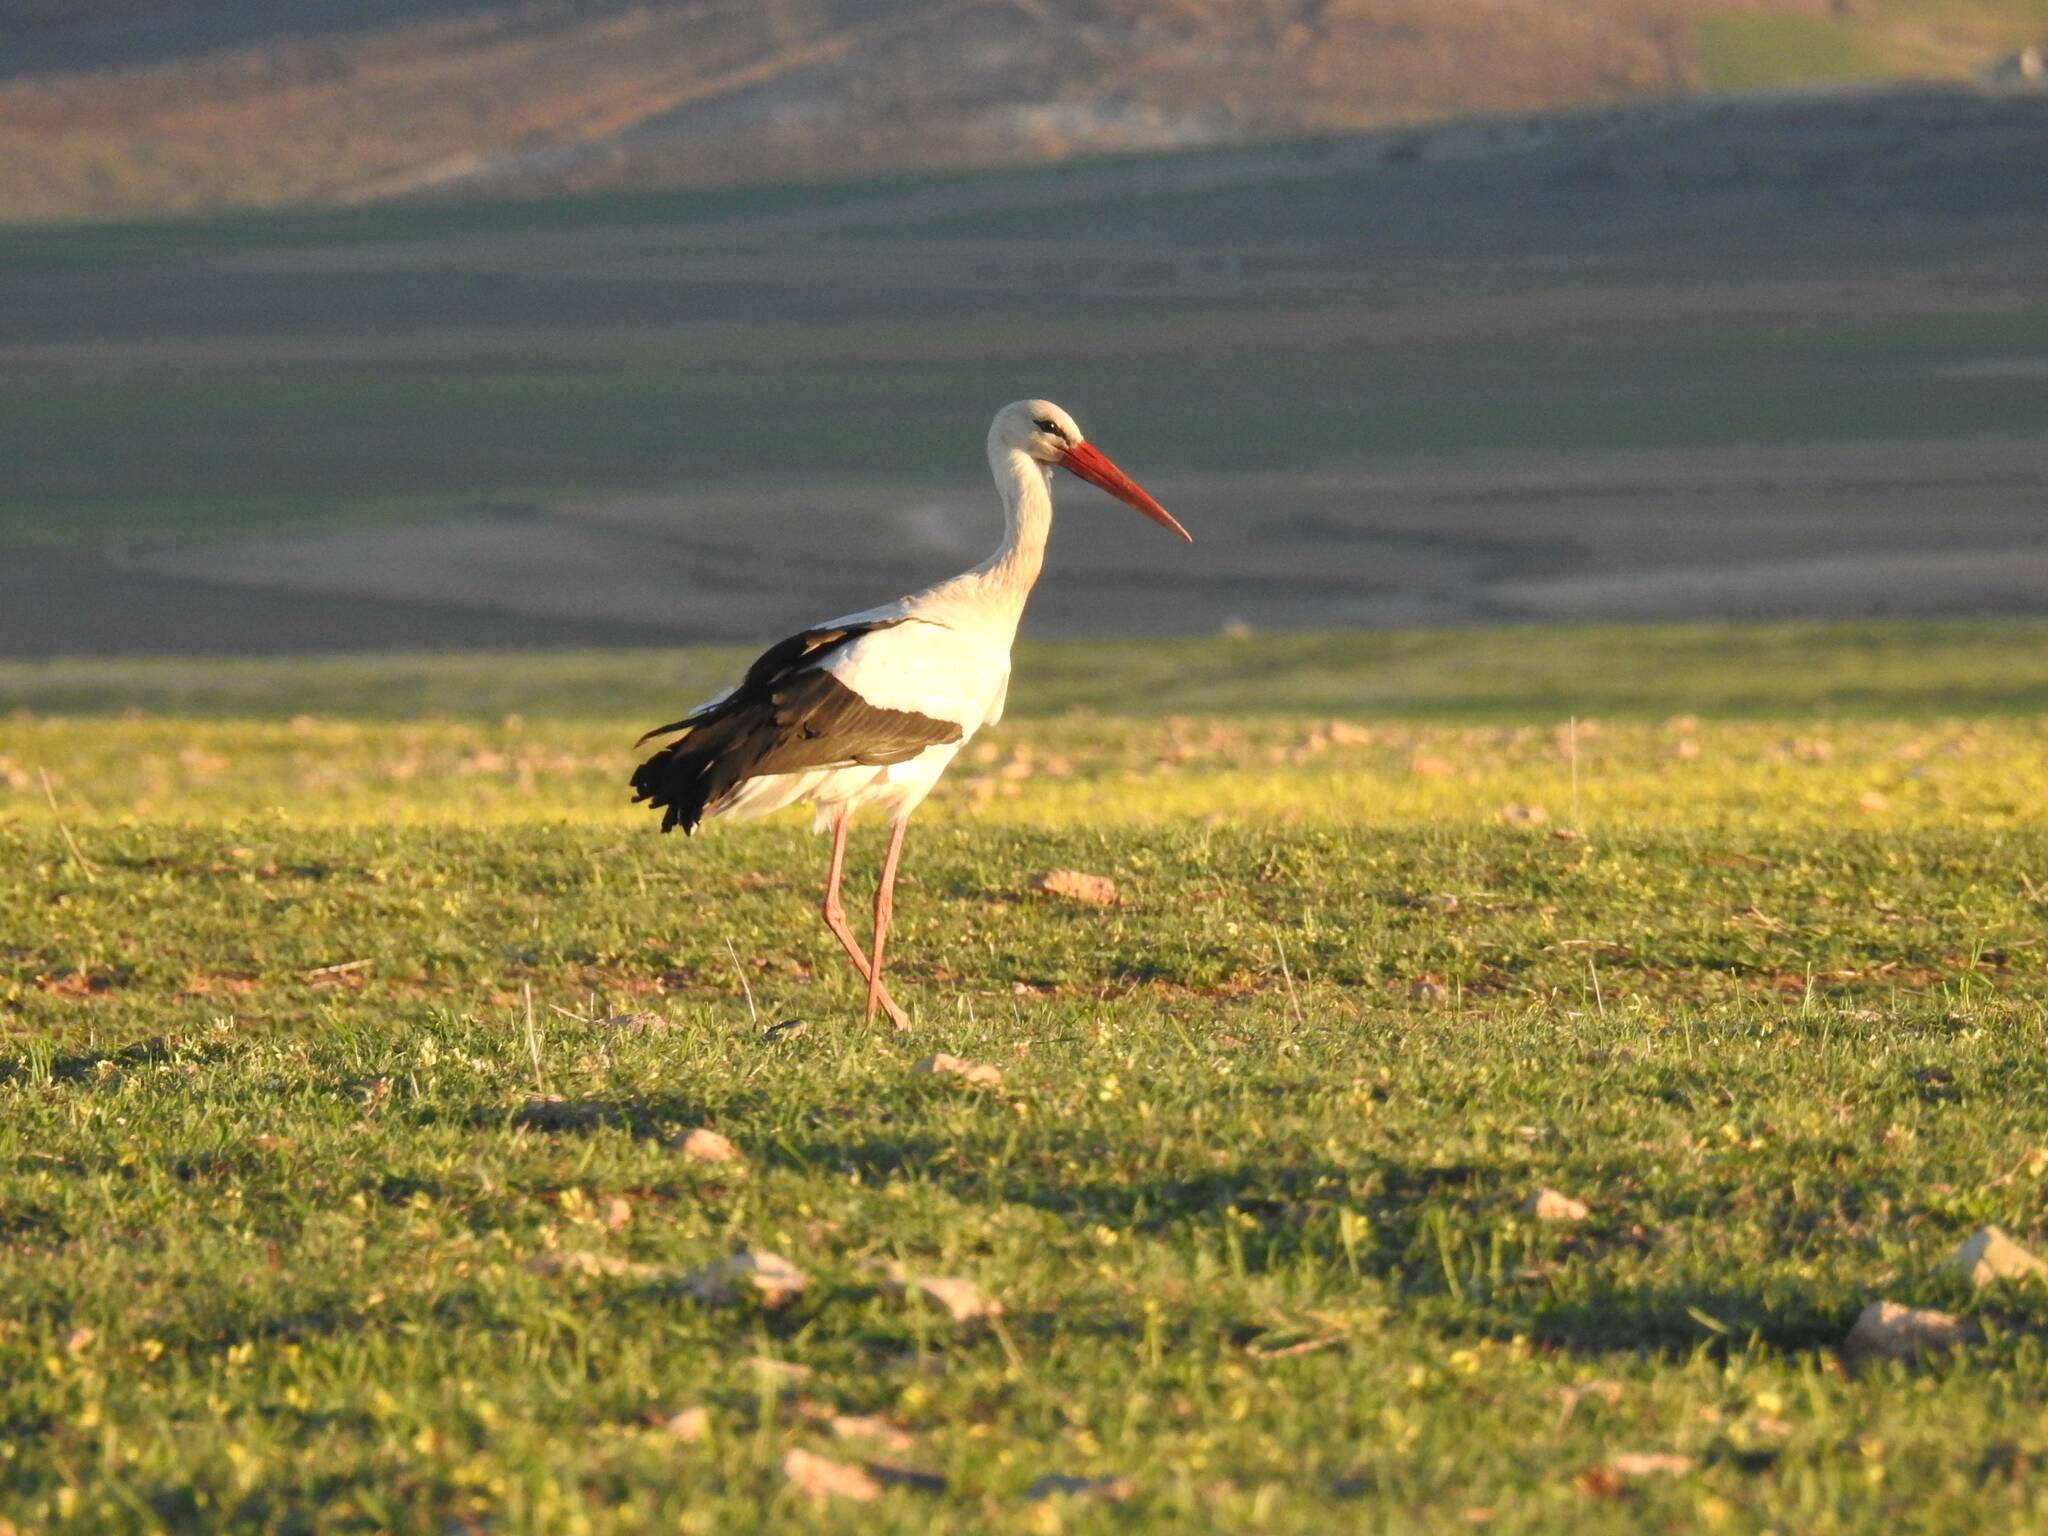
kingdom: Animalia
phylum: Chordata
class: Aves
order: Ciconiiformes
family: Ciconiidae
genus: Ciconia
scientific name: Ciconia ciconia
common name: White stork
